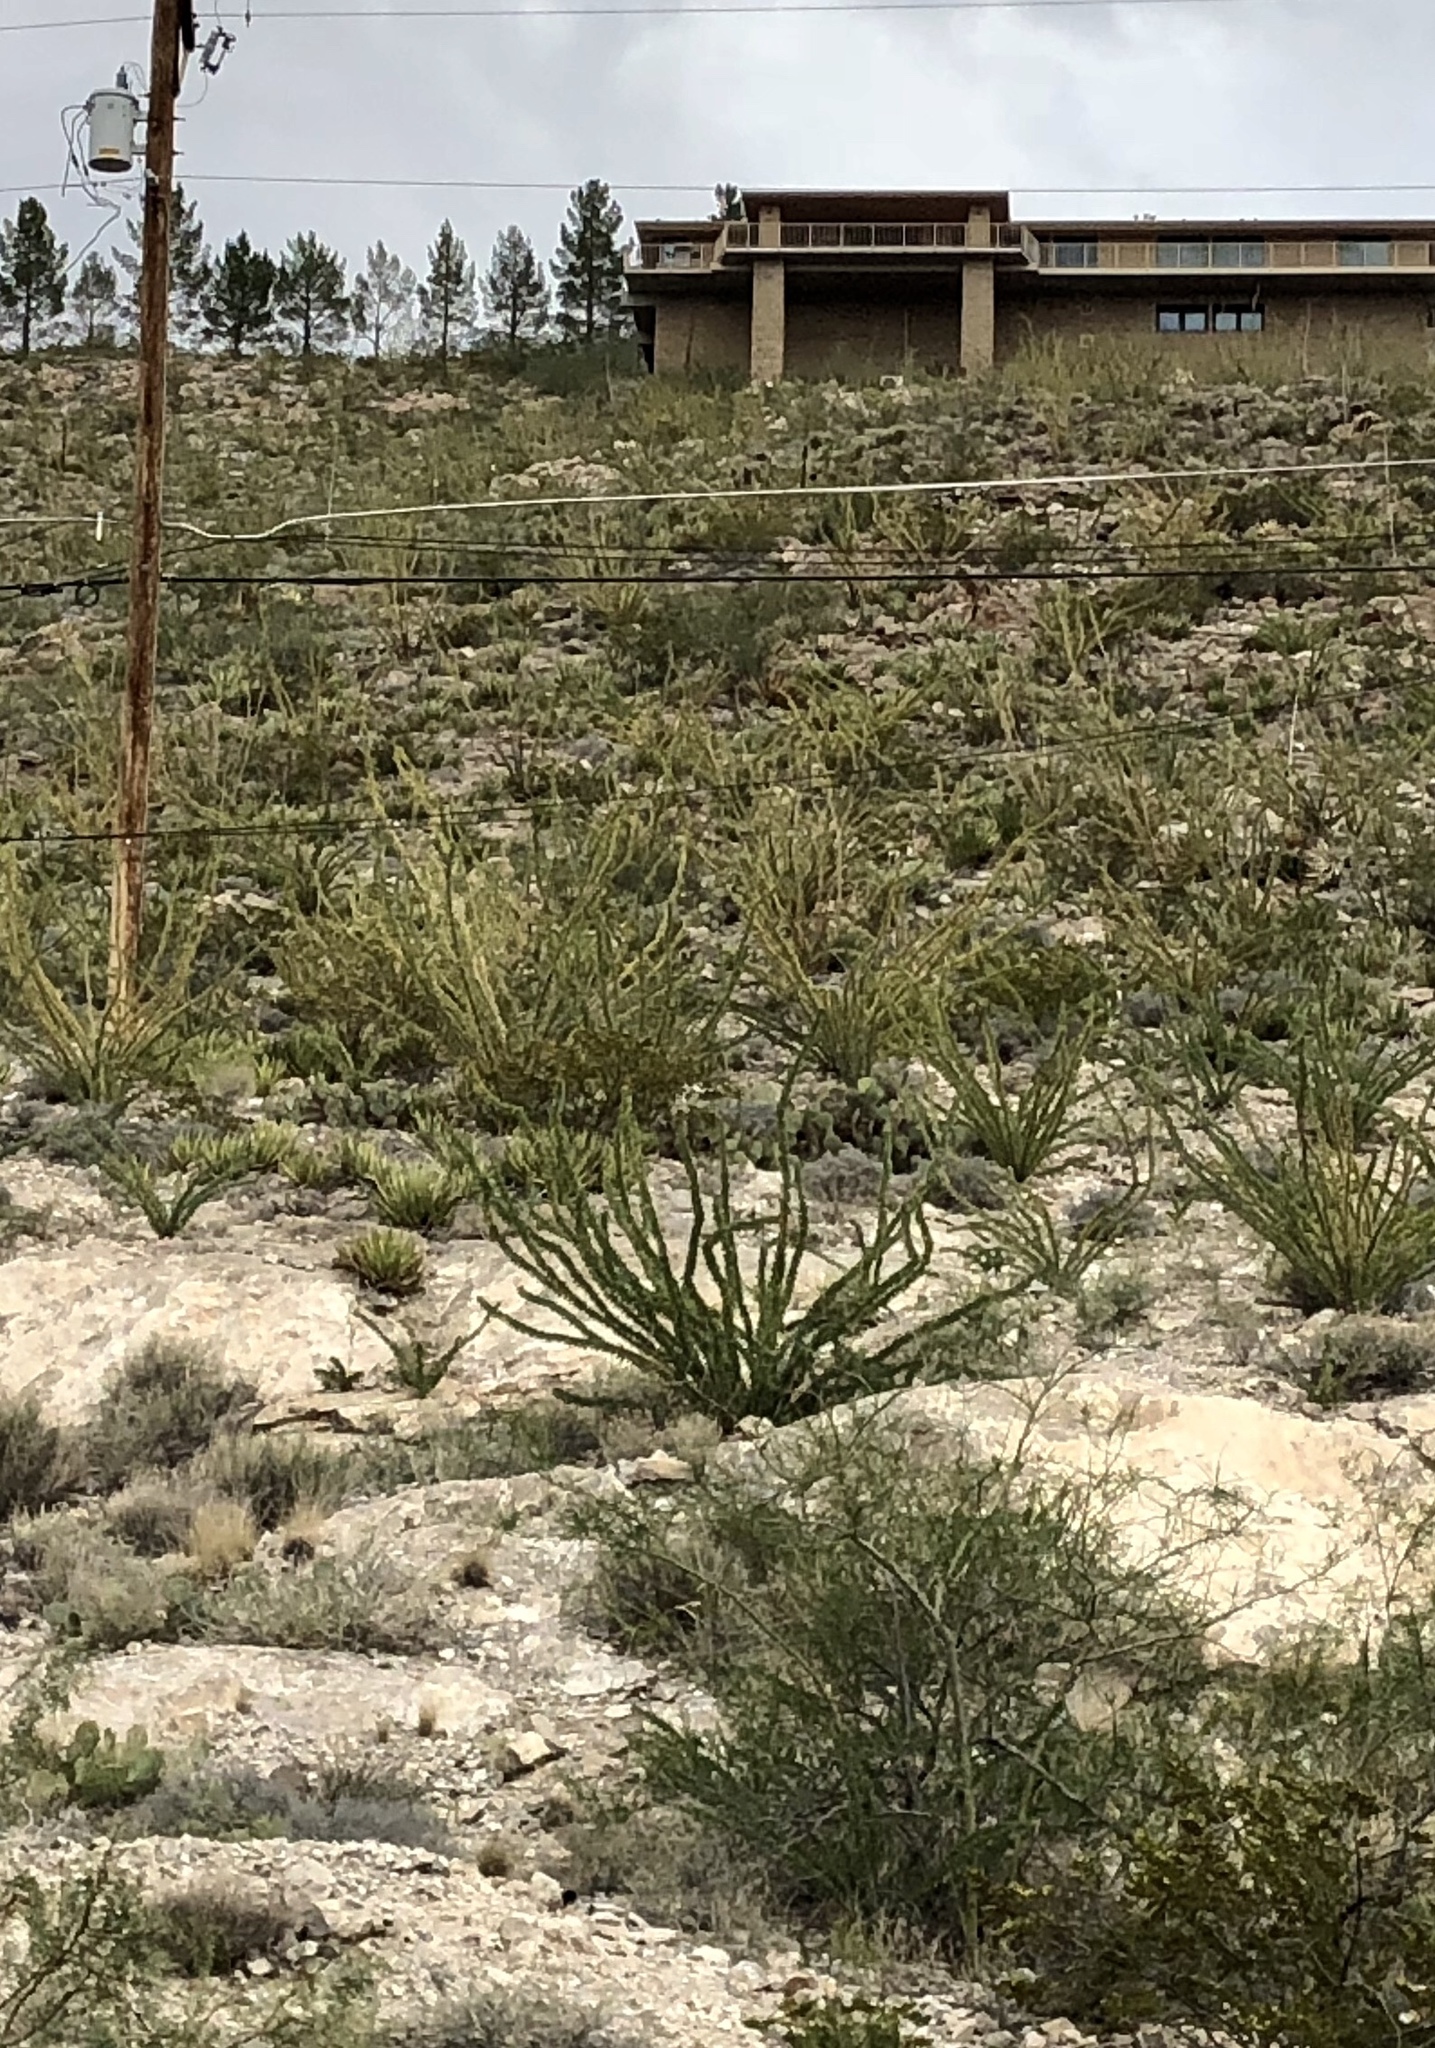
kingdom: Plantae
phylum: Tracheophyta
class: Magnoliopsida
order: Ericales
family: Fouquieriaceae
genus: Fouquieria
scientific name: Fouquieria splendens
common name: Vine-cactus
